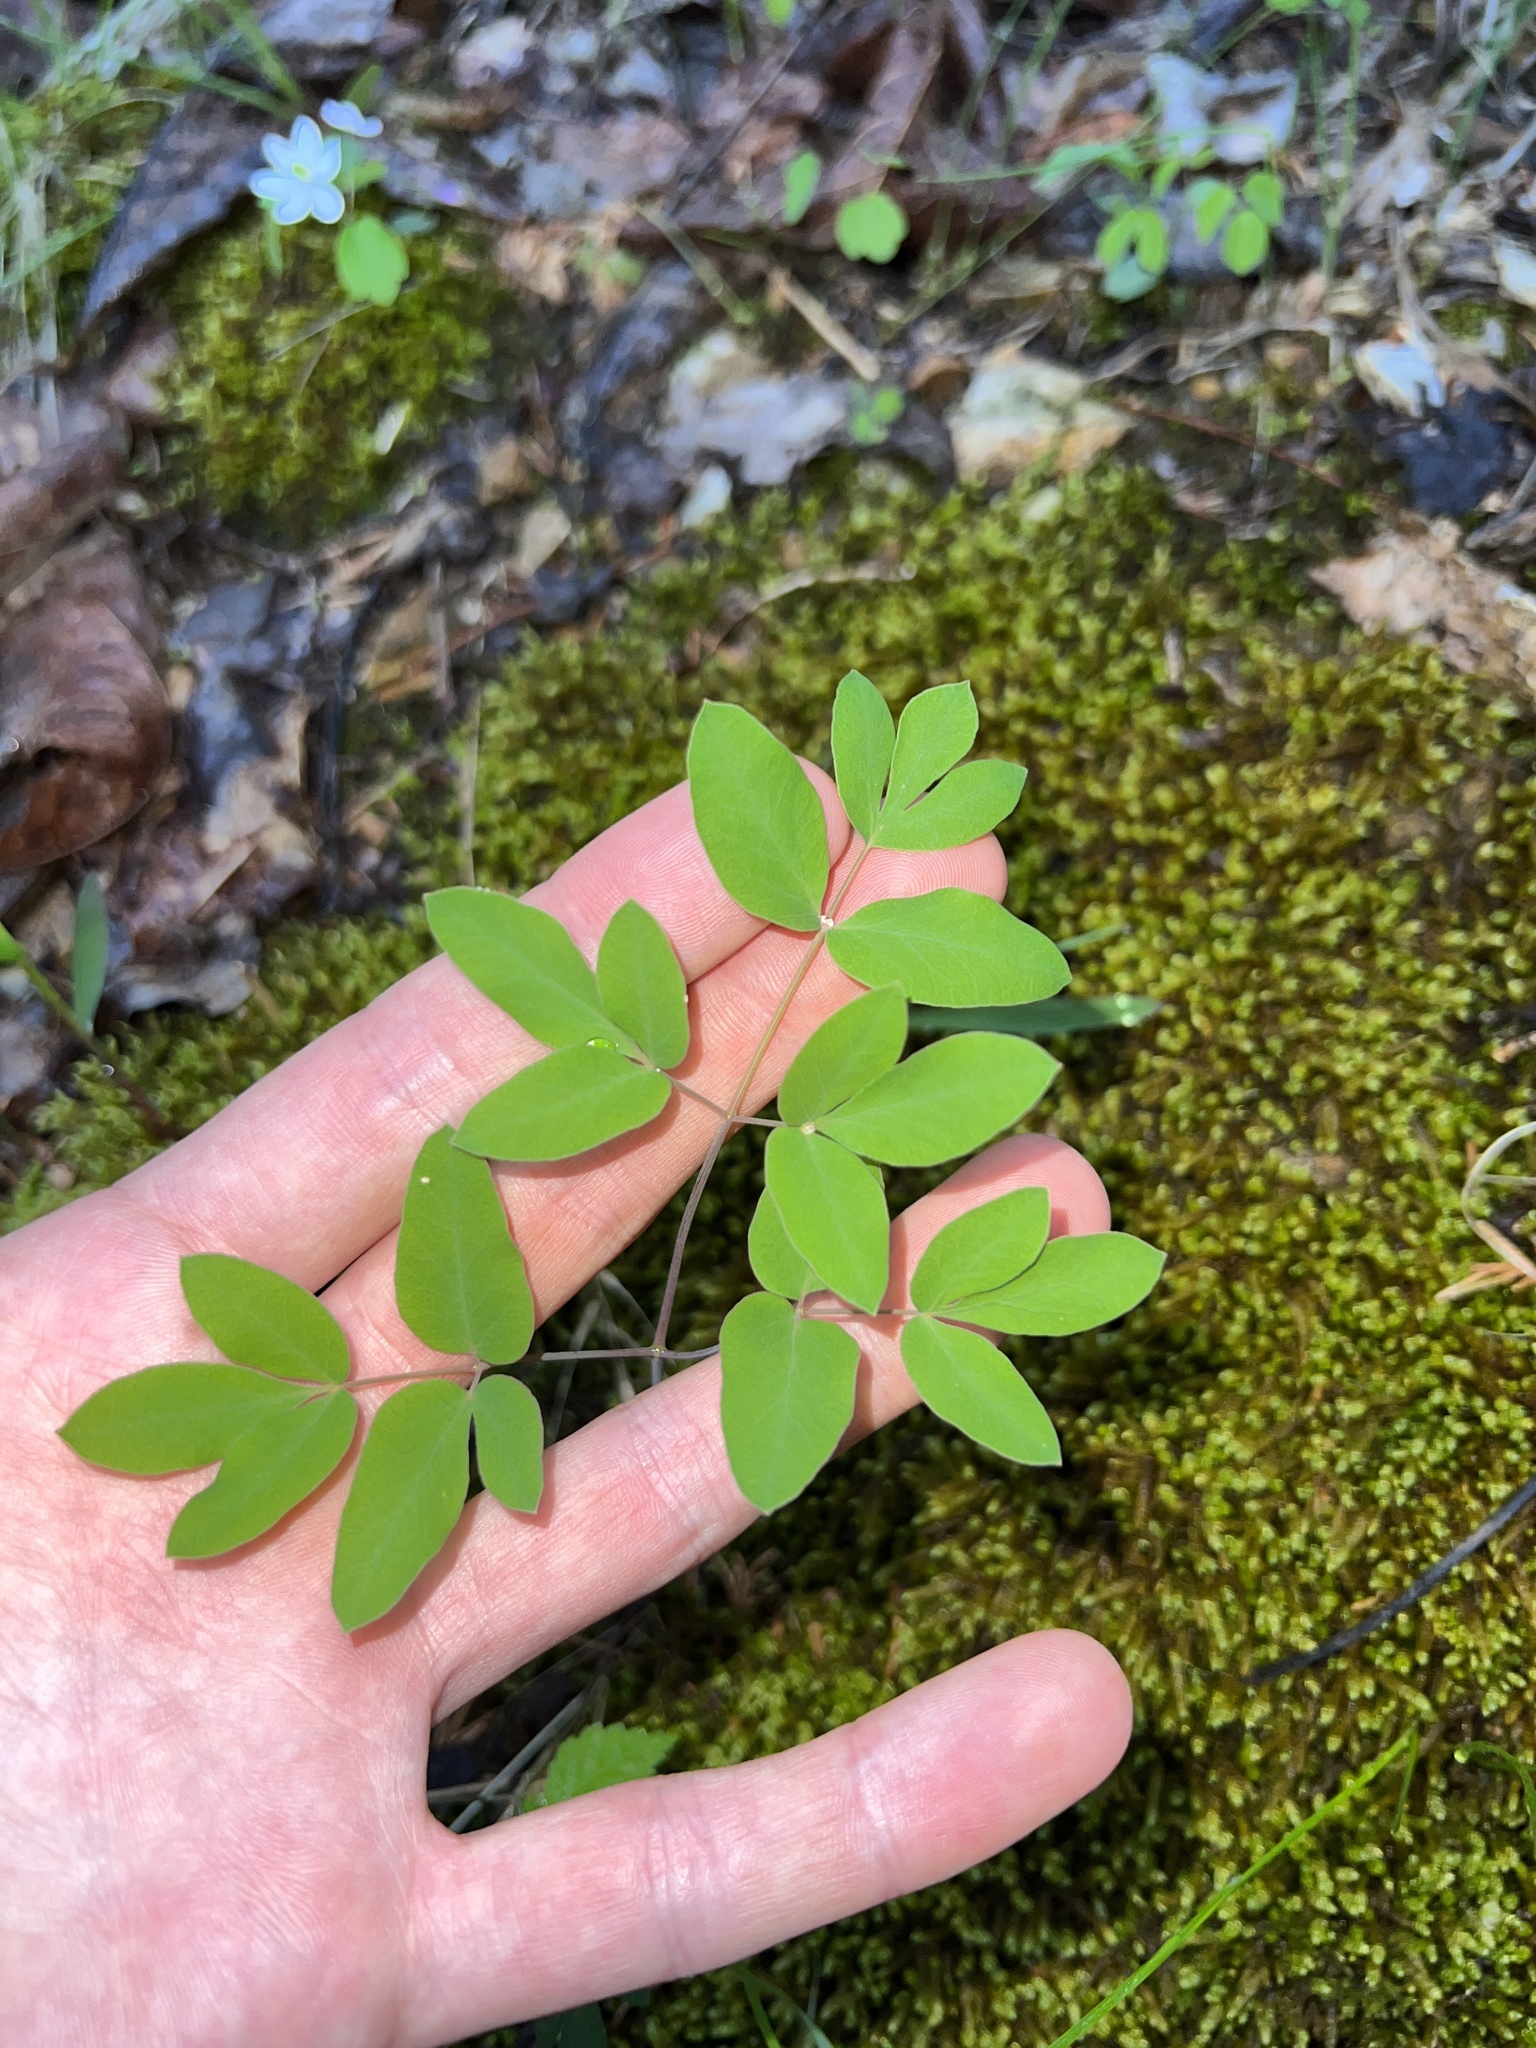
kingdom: Plantae
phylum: Tracheophyta
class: Magnoliopsida
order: Apiales
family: Apiaceae
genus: Taenidia
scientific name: Taenidia integerrima
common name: Golden alexander
